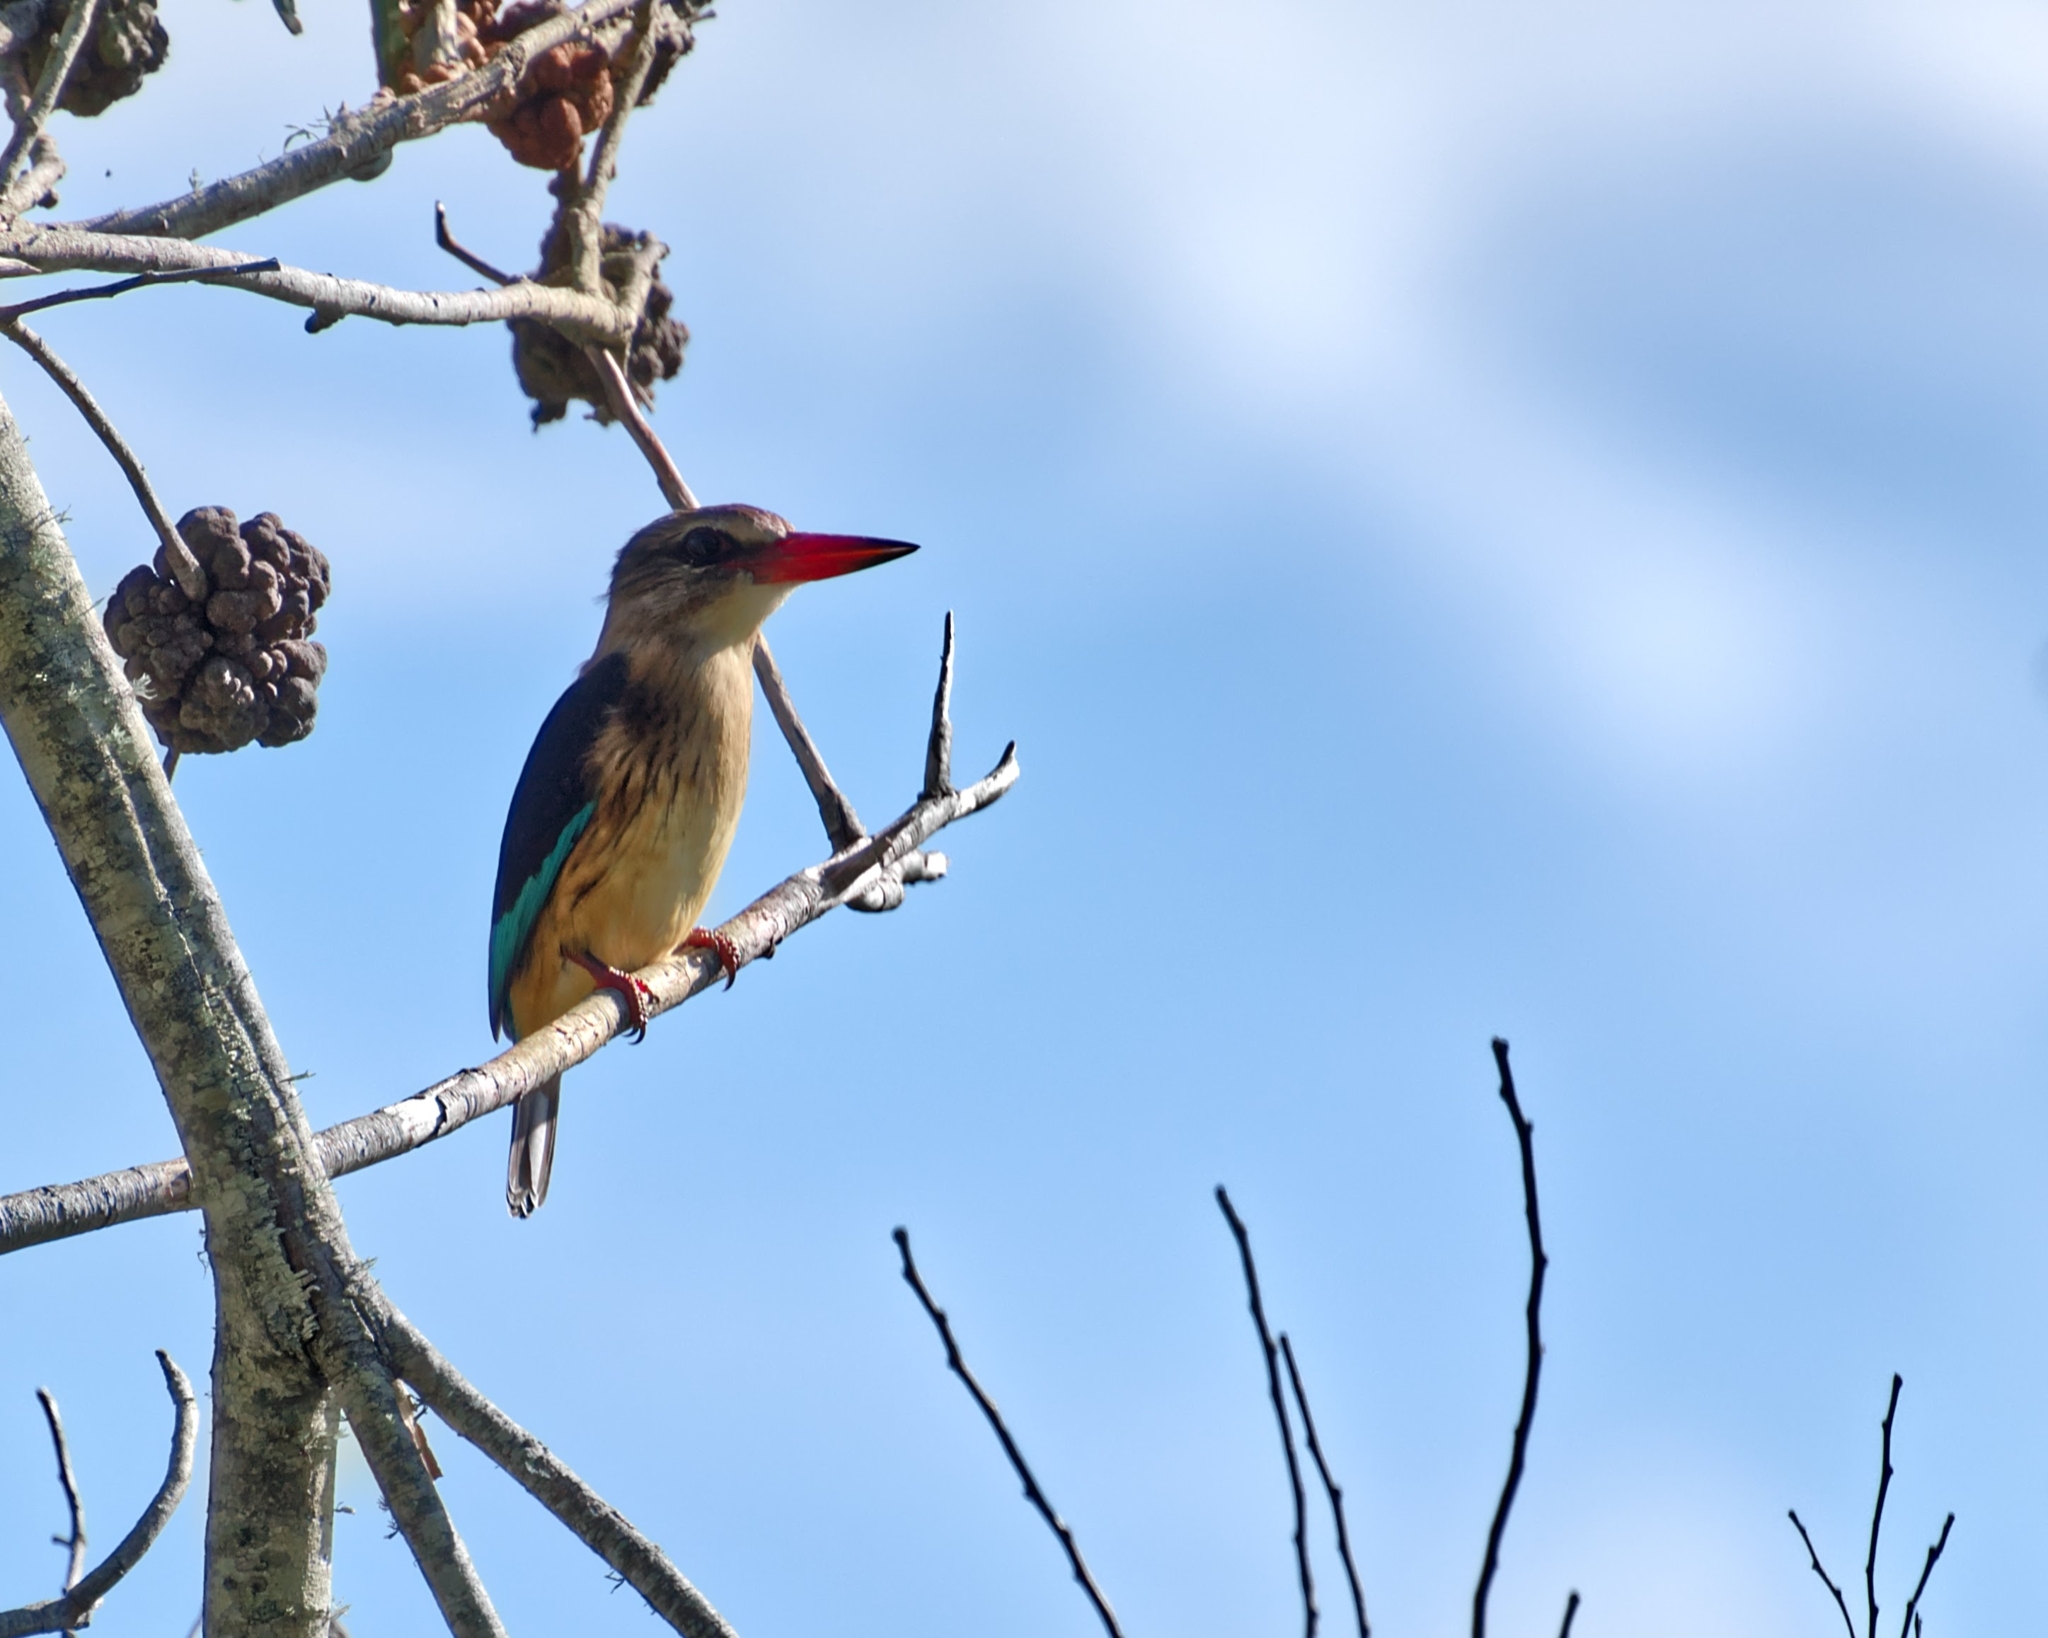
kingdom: Animalia
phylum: Chordata
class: Aves
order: Coraciiformes
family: Alcedinidae
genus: Halcyon
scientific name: Halcyon albiventris
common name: Brown-hooded kingfisher
